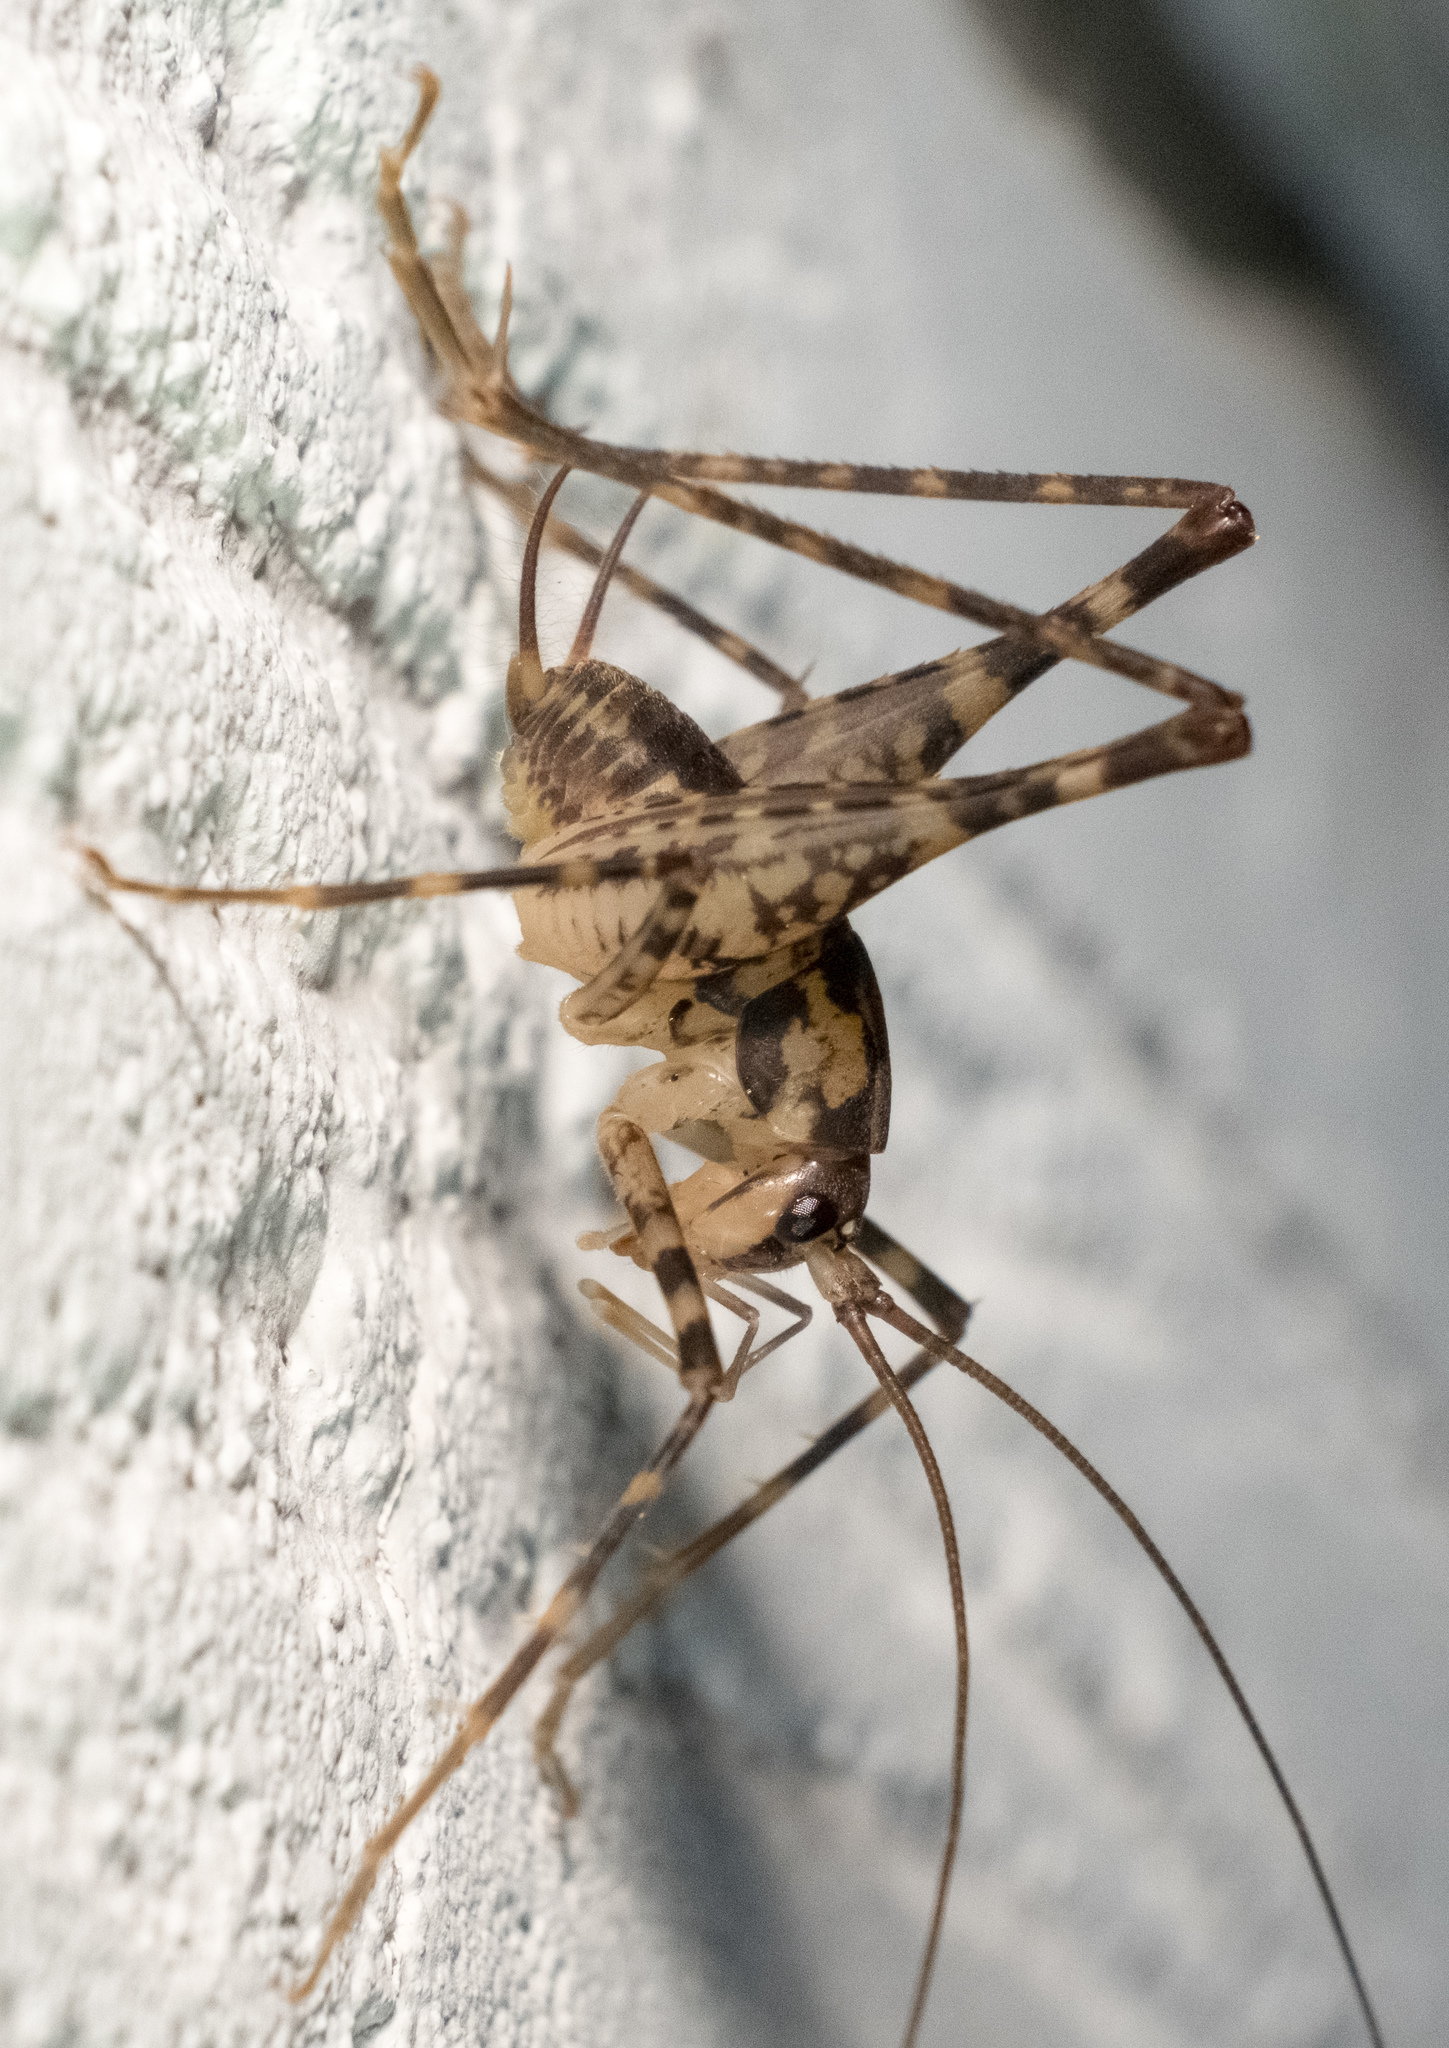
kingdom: Animalia
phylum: Arthropoda
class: Insecta
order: Orthoptera
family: Rhaphidophoridae
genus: Diestrammena
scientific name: Diestrammena japanica
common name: Japanese camel cricket
